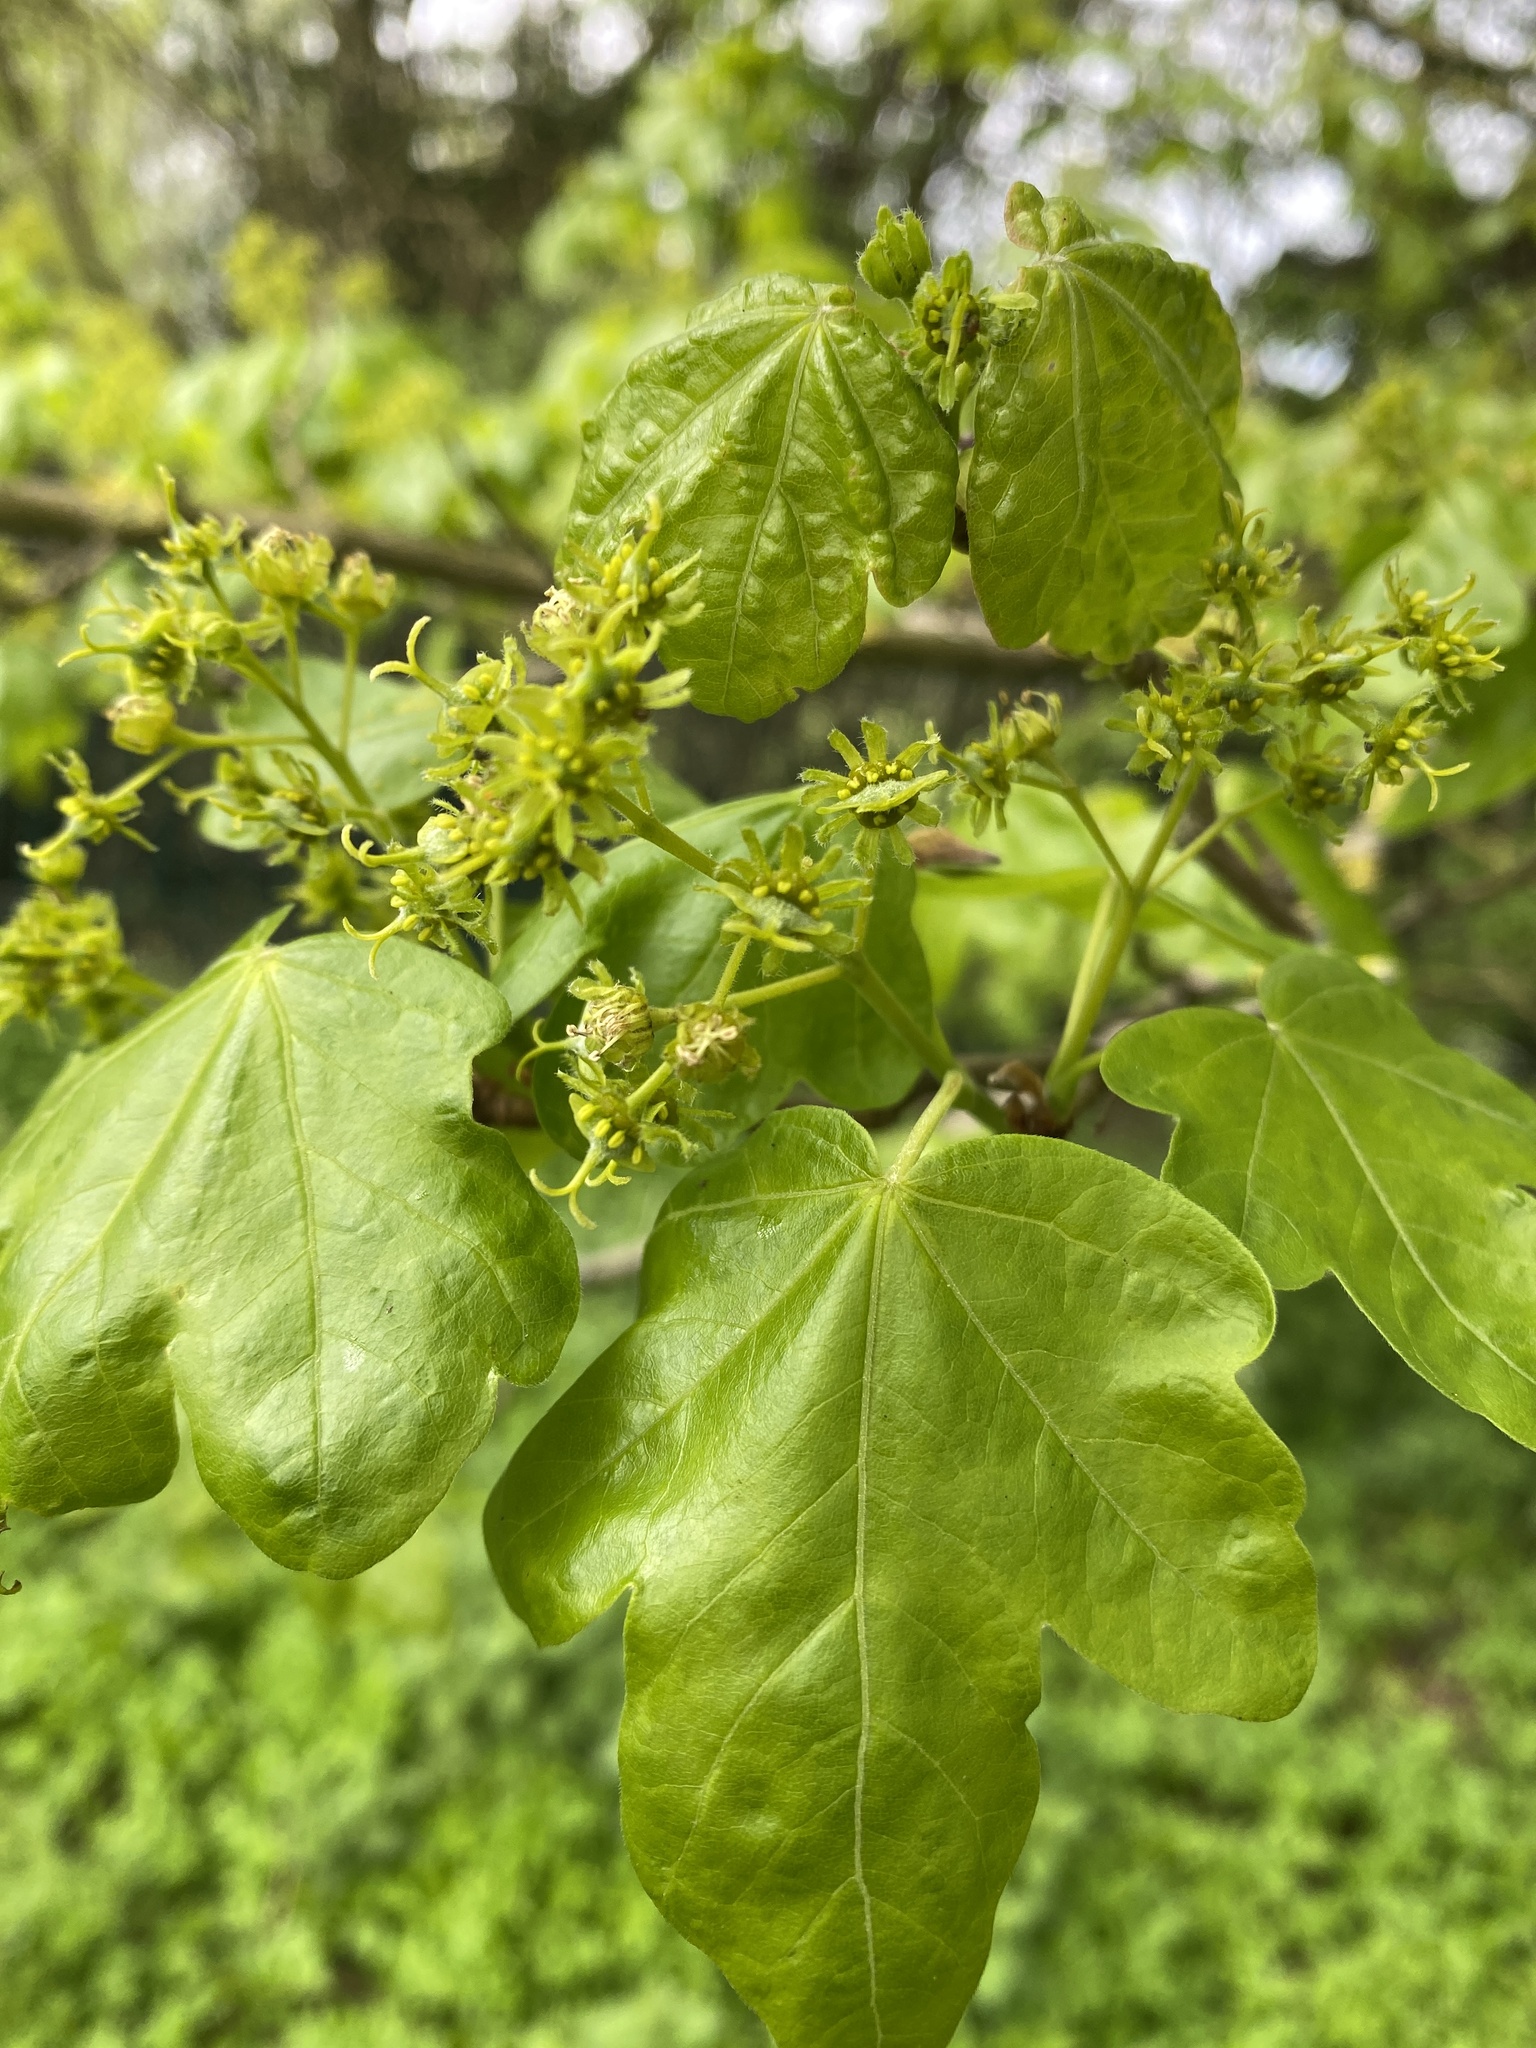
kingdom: Plantae
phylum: Tracheophyta
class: Magnoliopsida
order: Sapindales
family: Sapindaceae
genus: Acer
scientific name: Acer campestre
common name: Field maple
